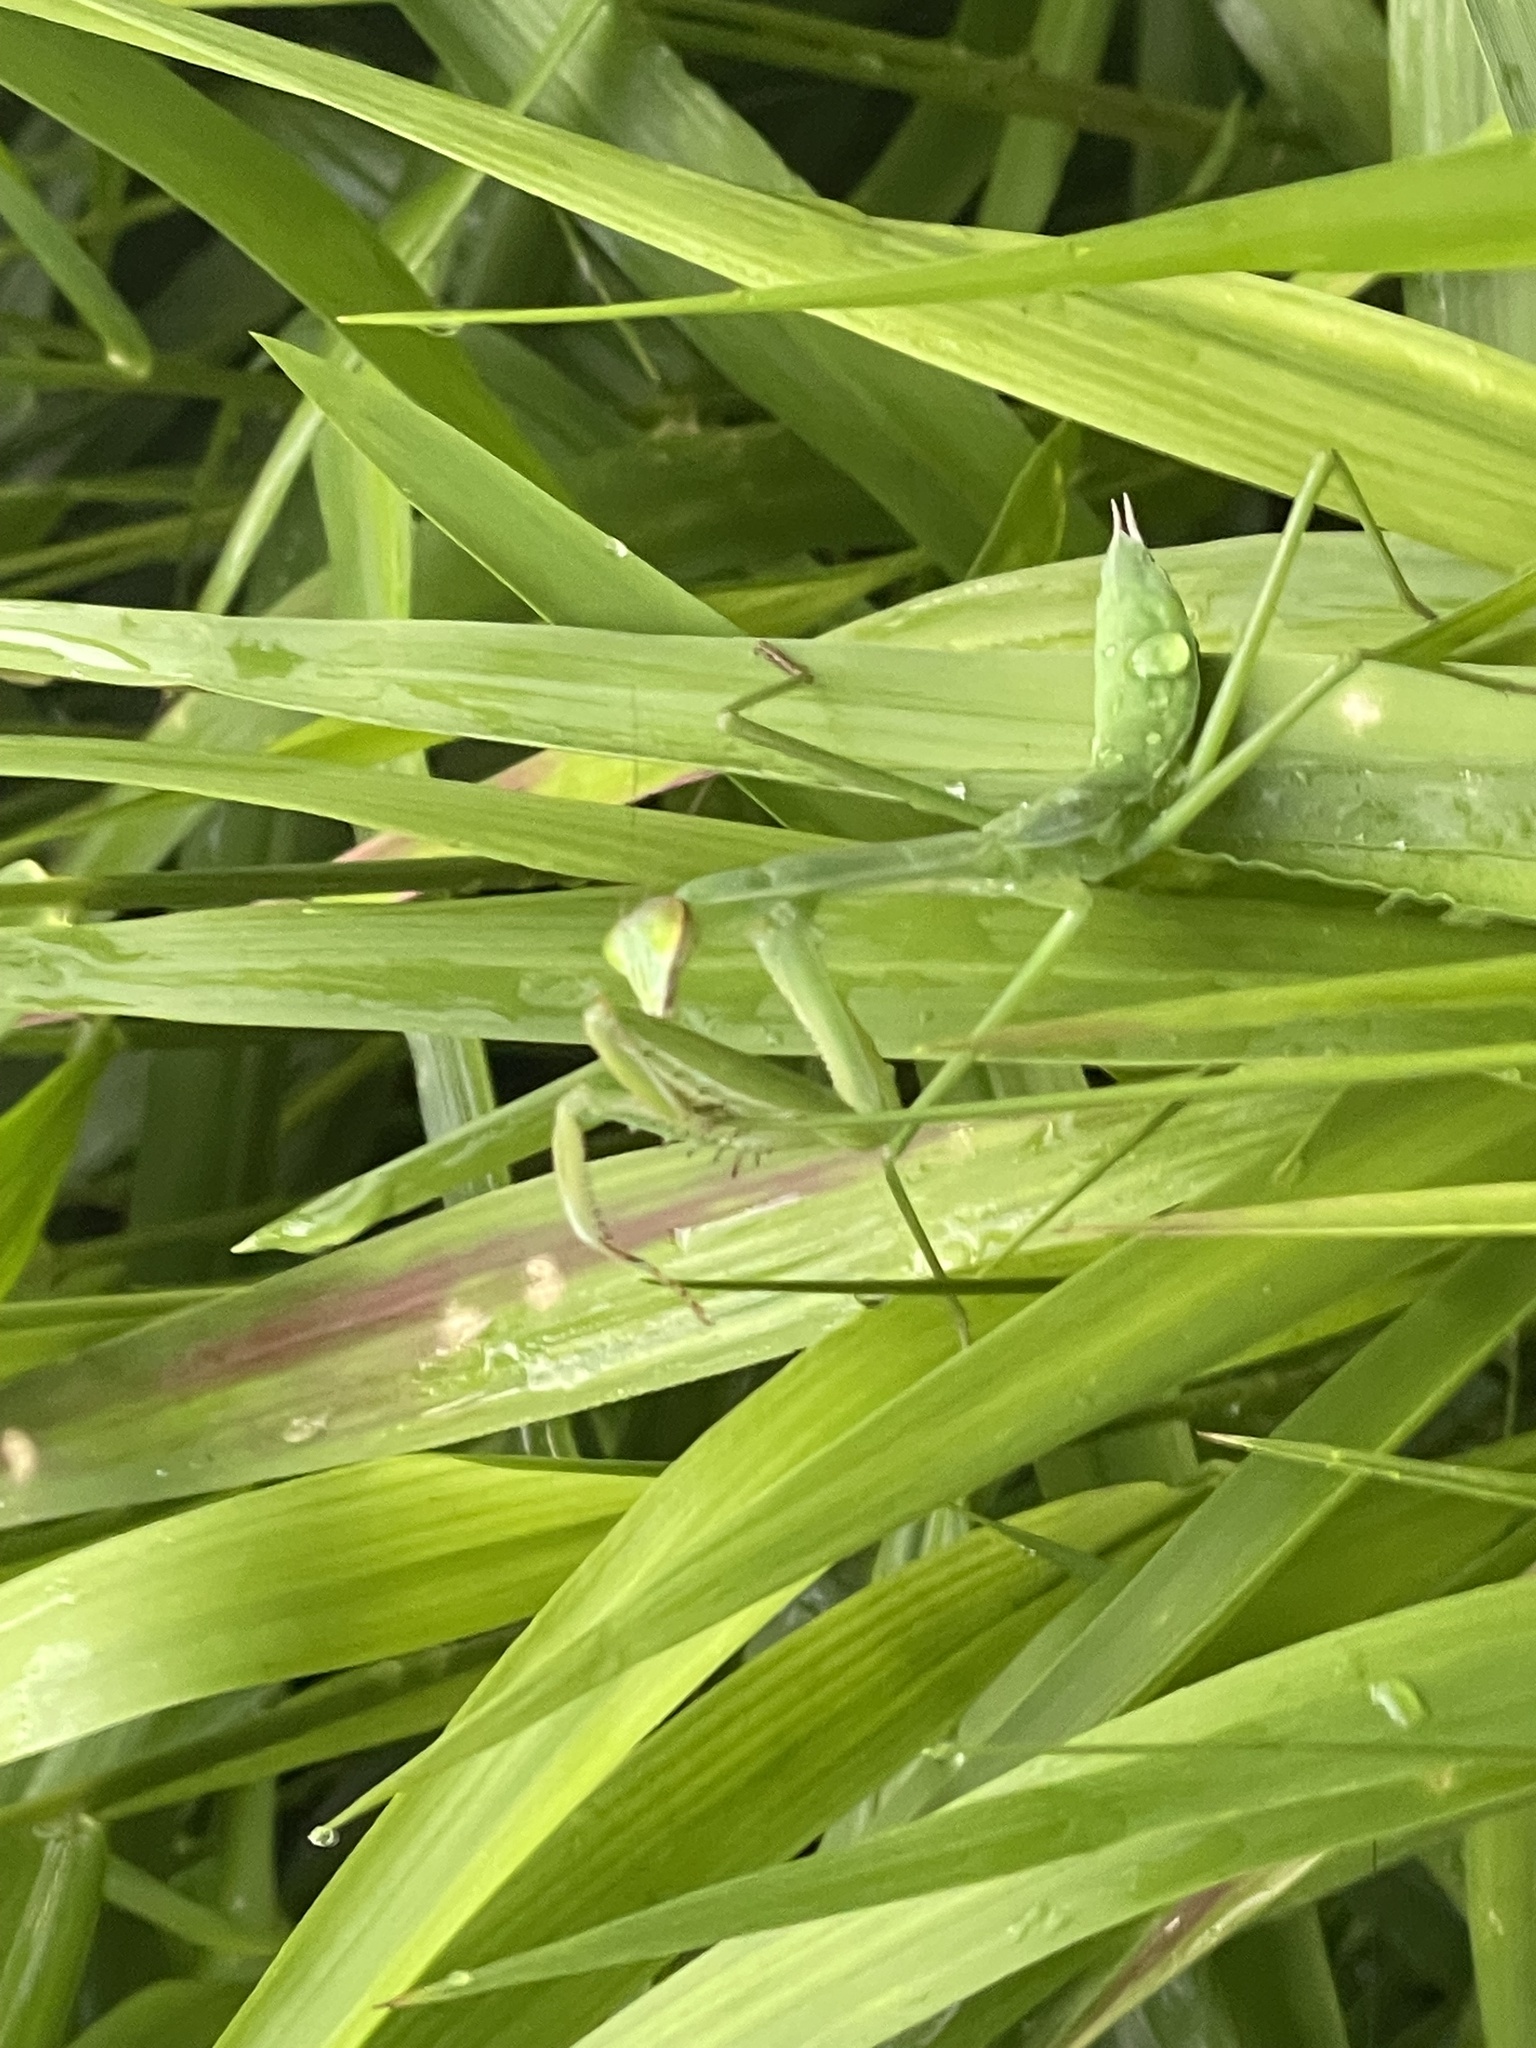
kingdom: Animalia
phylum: Arthropoda
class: Insecta
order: Mantodea
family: Mantidae
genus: Tenodera
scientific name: Tenodera sinensis
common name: Chinese mantis
